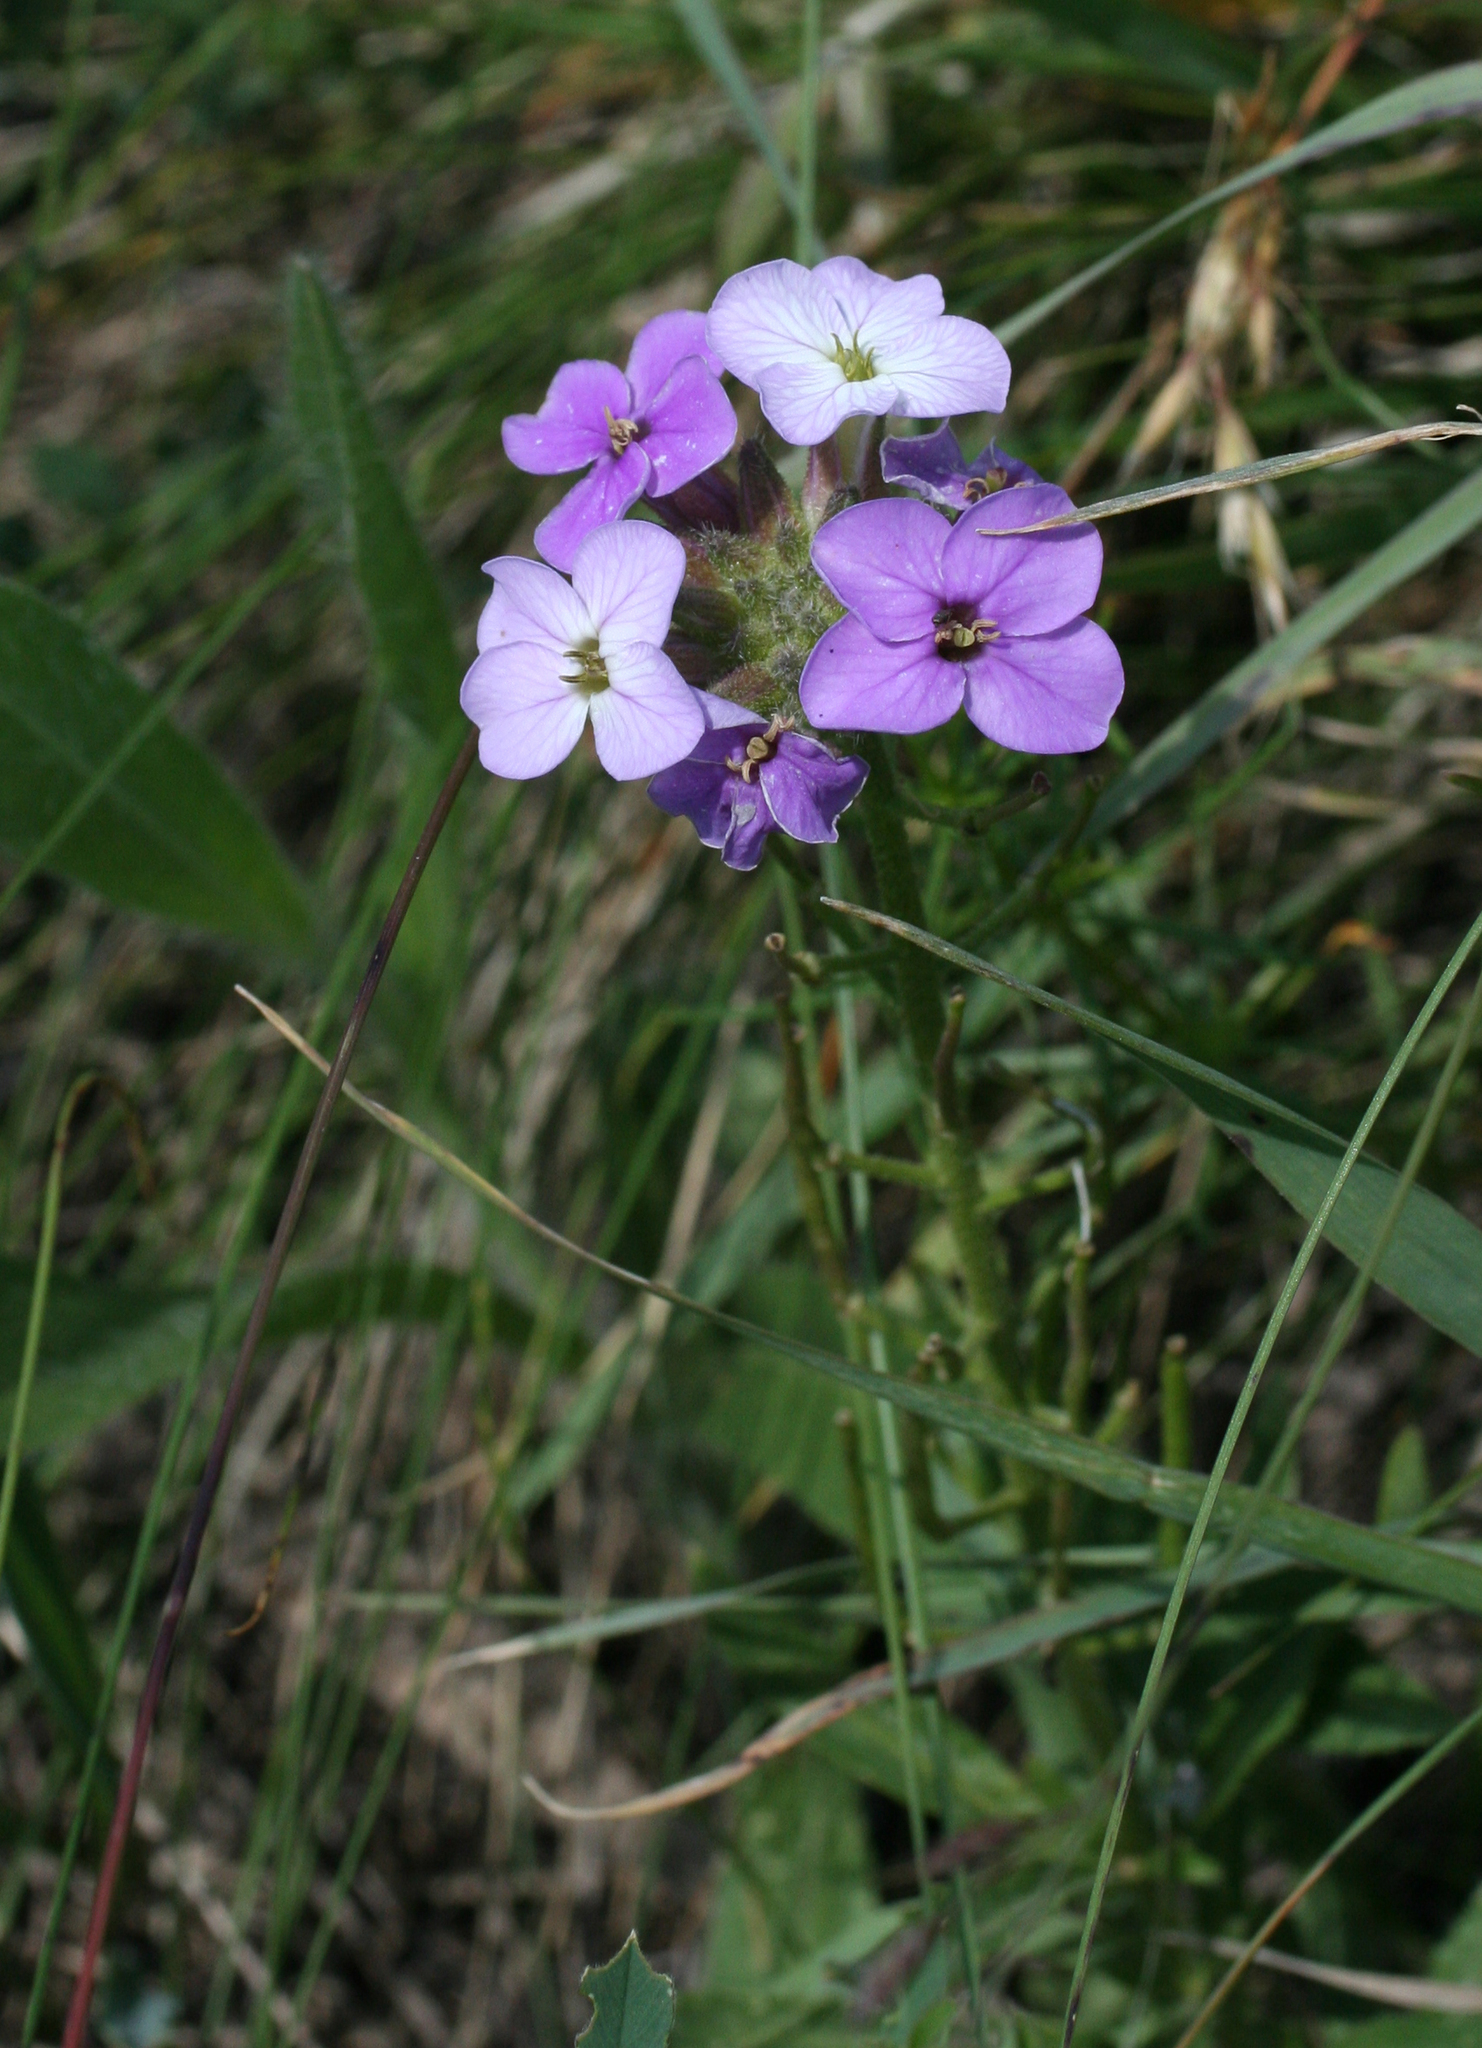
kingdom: Plantae
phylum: Tracheophyta
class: Magnoliopsida
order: Brassicales
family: Brassicaceae
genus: Clausia
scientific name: Clausia aprica
